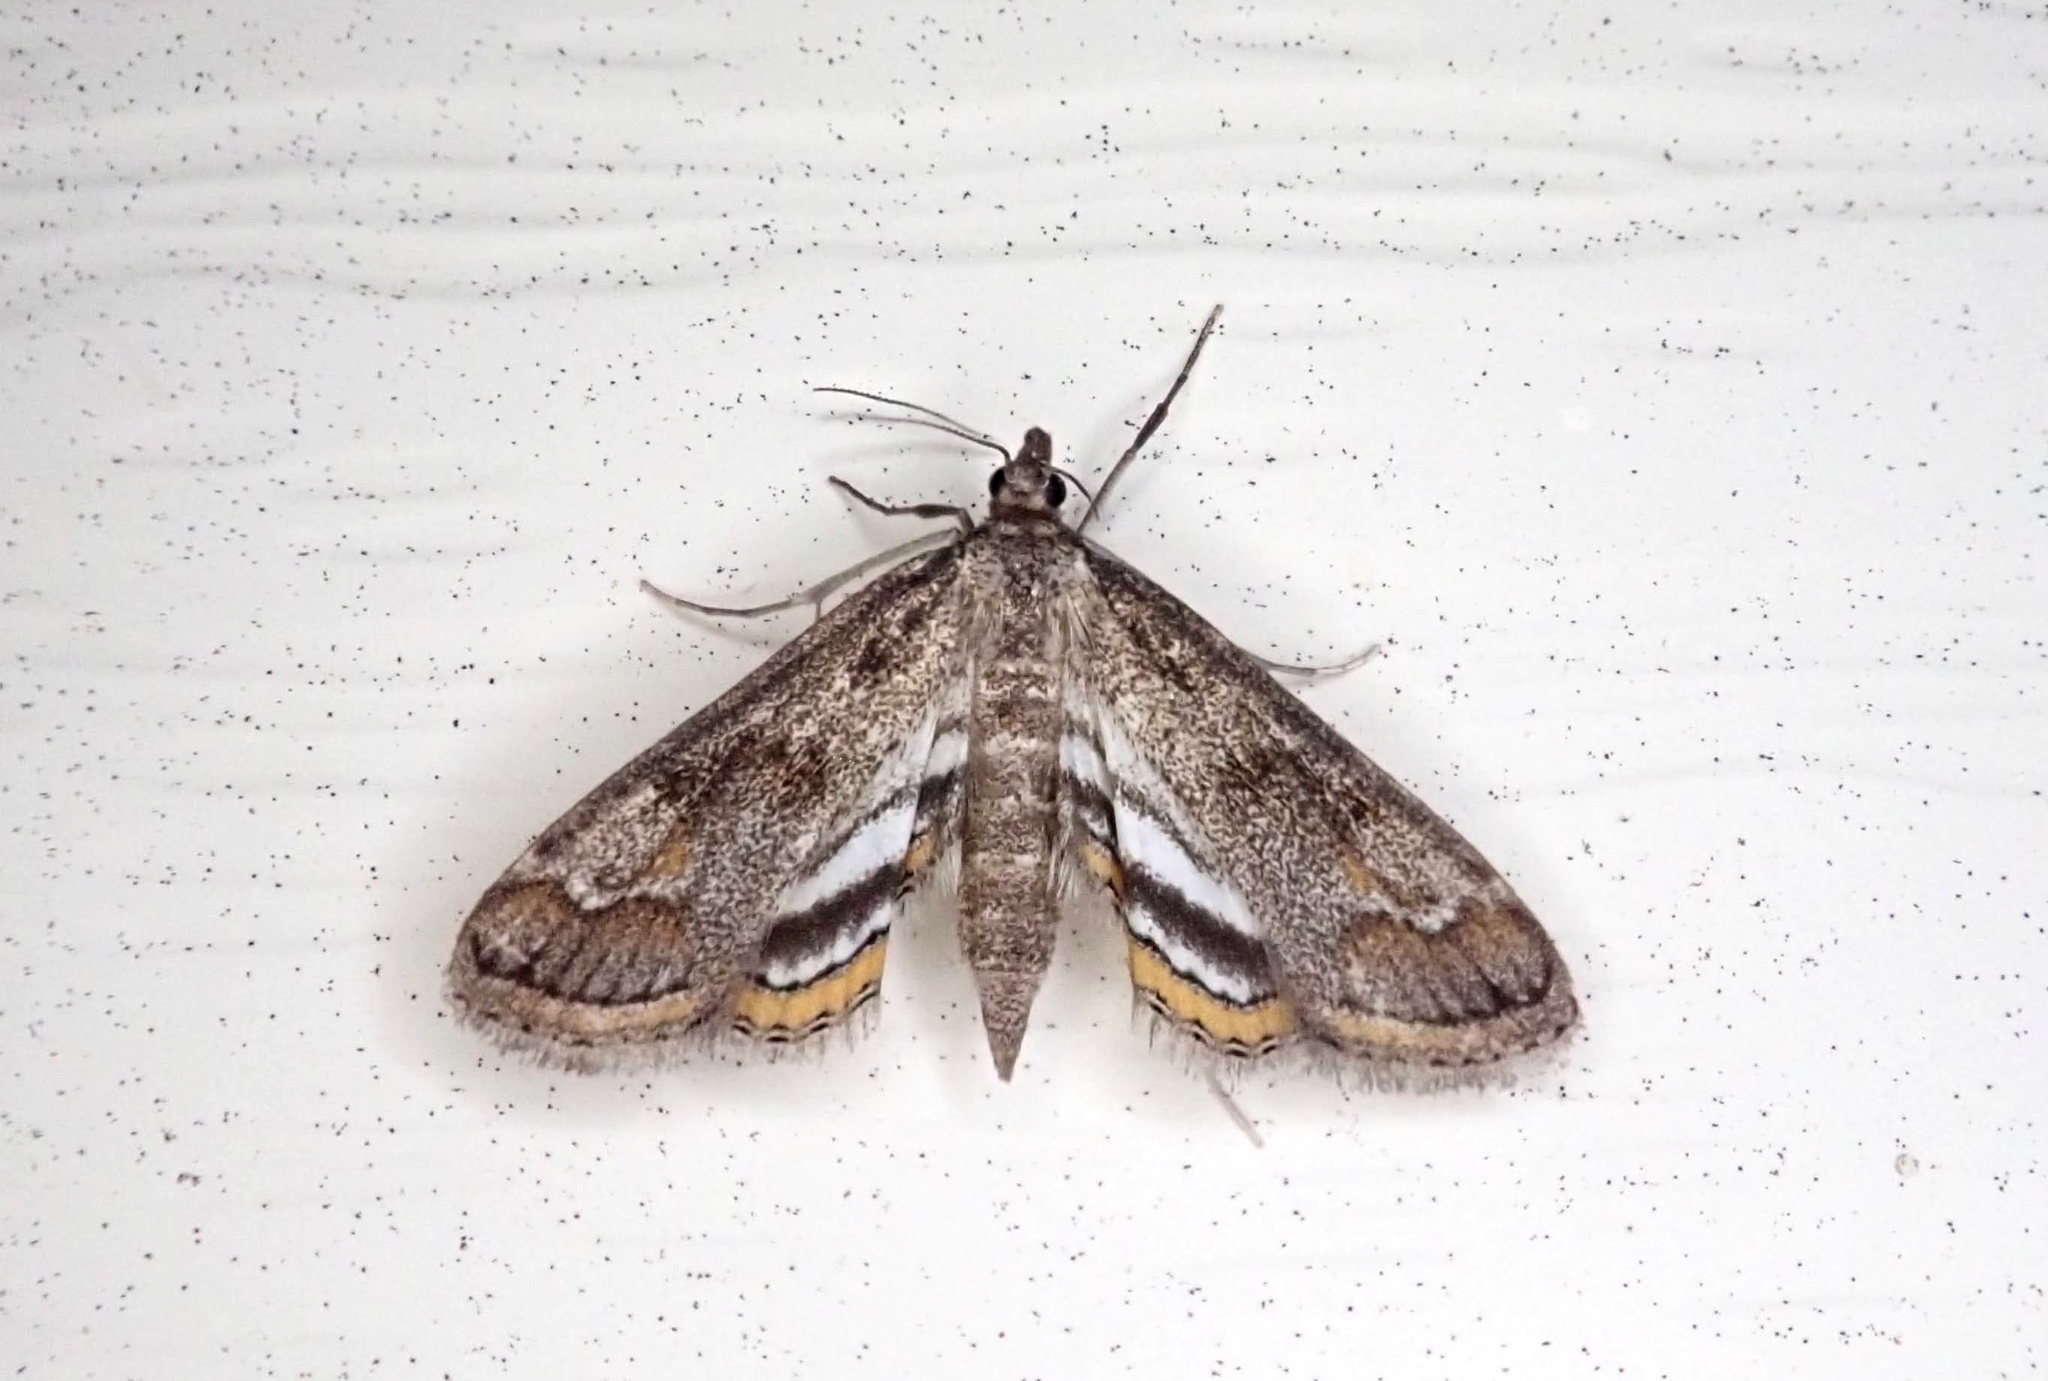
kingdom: Animalia
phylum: Arthropoda
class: Insecta
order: Lepidoptera
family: Crambidae
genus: Parapoynx
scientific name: Parapoynx obscuralis
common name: American china-mark
